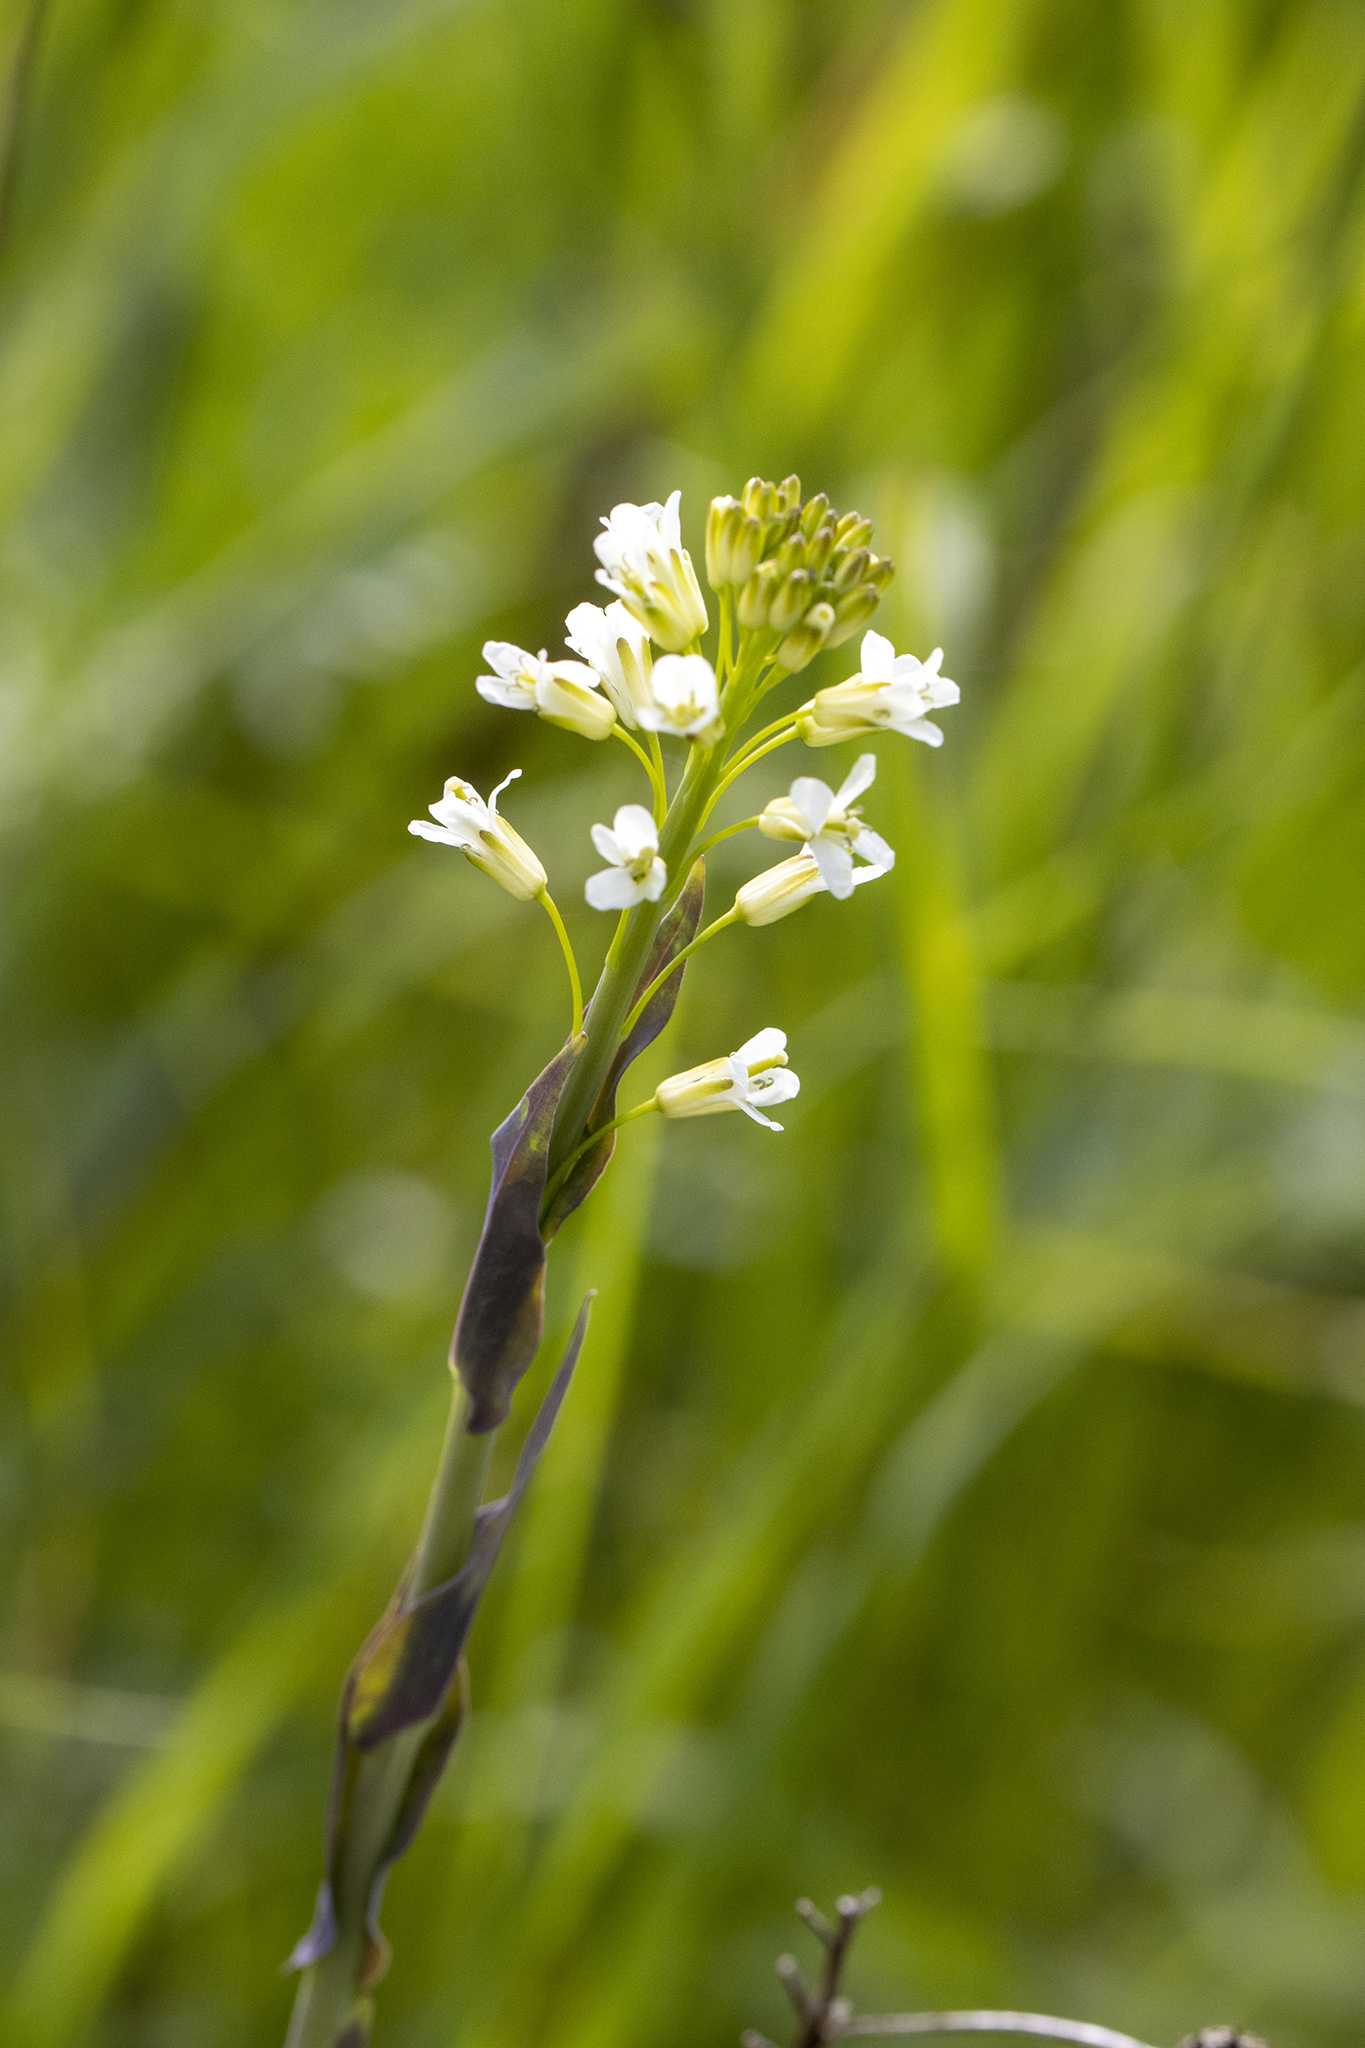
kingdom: Plantae
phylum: Tracheophyta
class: Magnoliopsida
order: Brassicales
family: Brassicaceae
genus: Turritis
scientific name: Turritis glabra
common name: Tower rockcress
